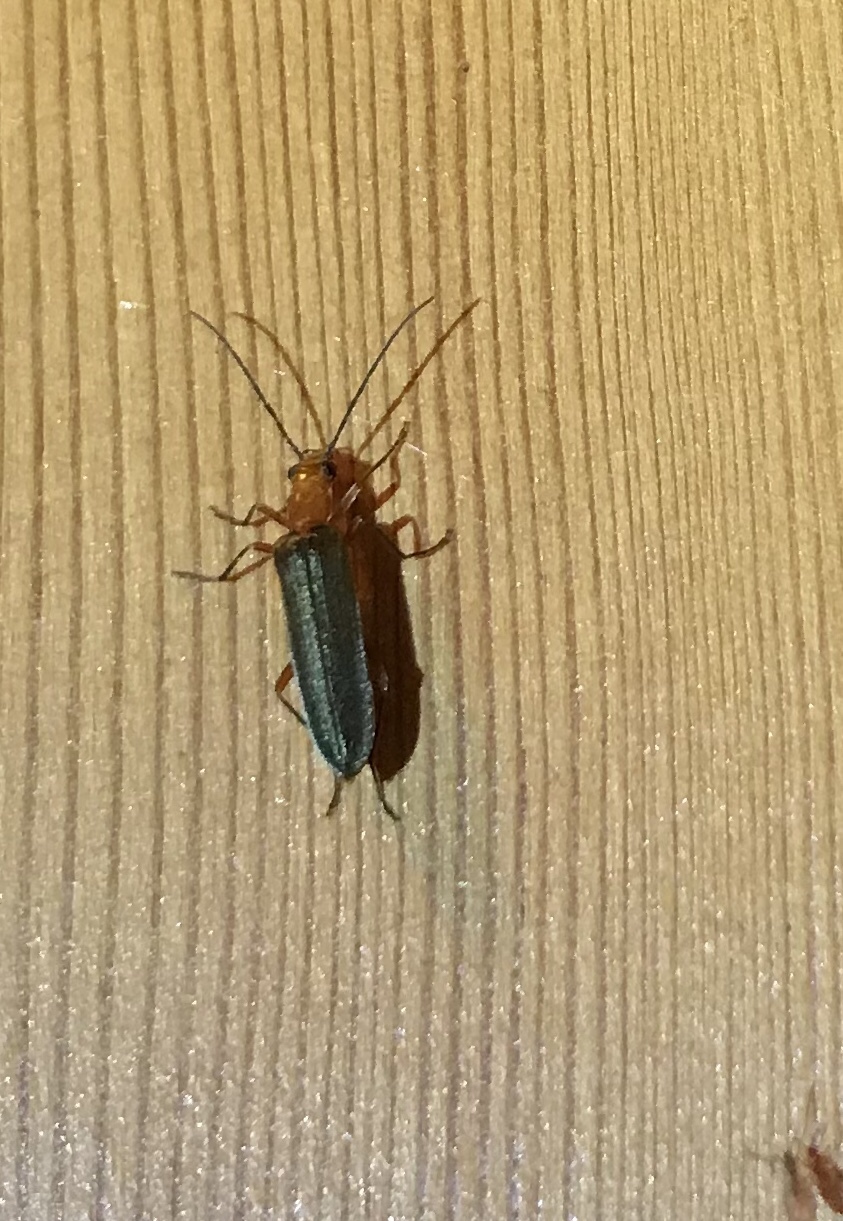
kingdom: Animalia
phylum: Arthropoda
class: Insecta
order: Coleoptera
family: Oedemeridae
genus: Nacerdes
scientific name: Nacerdes
